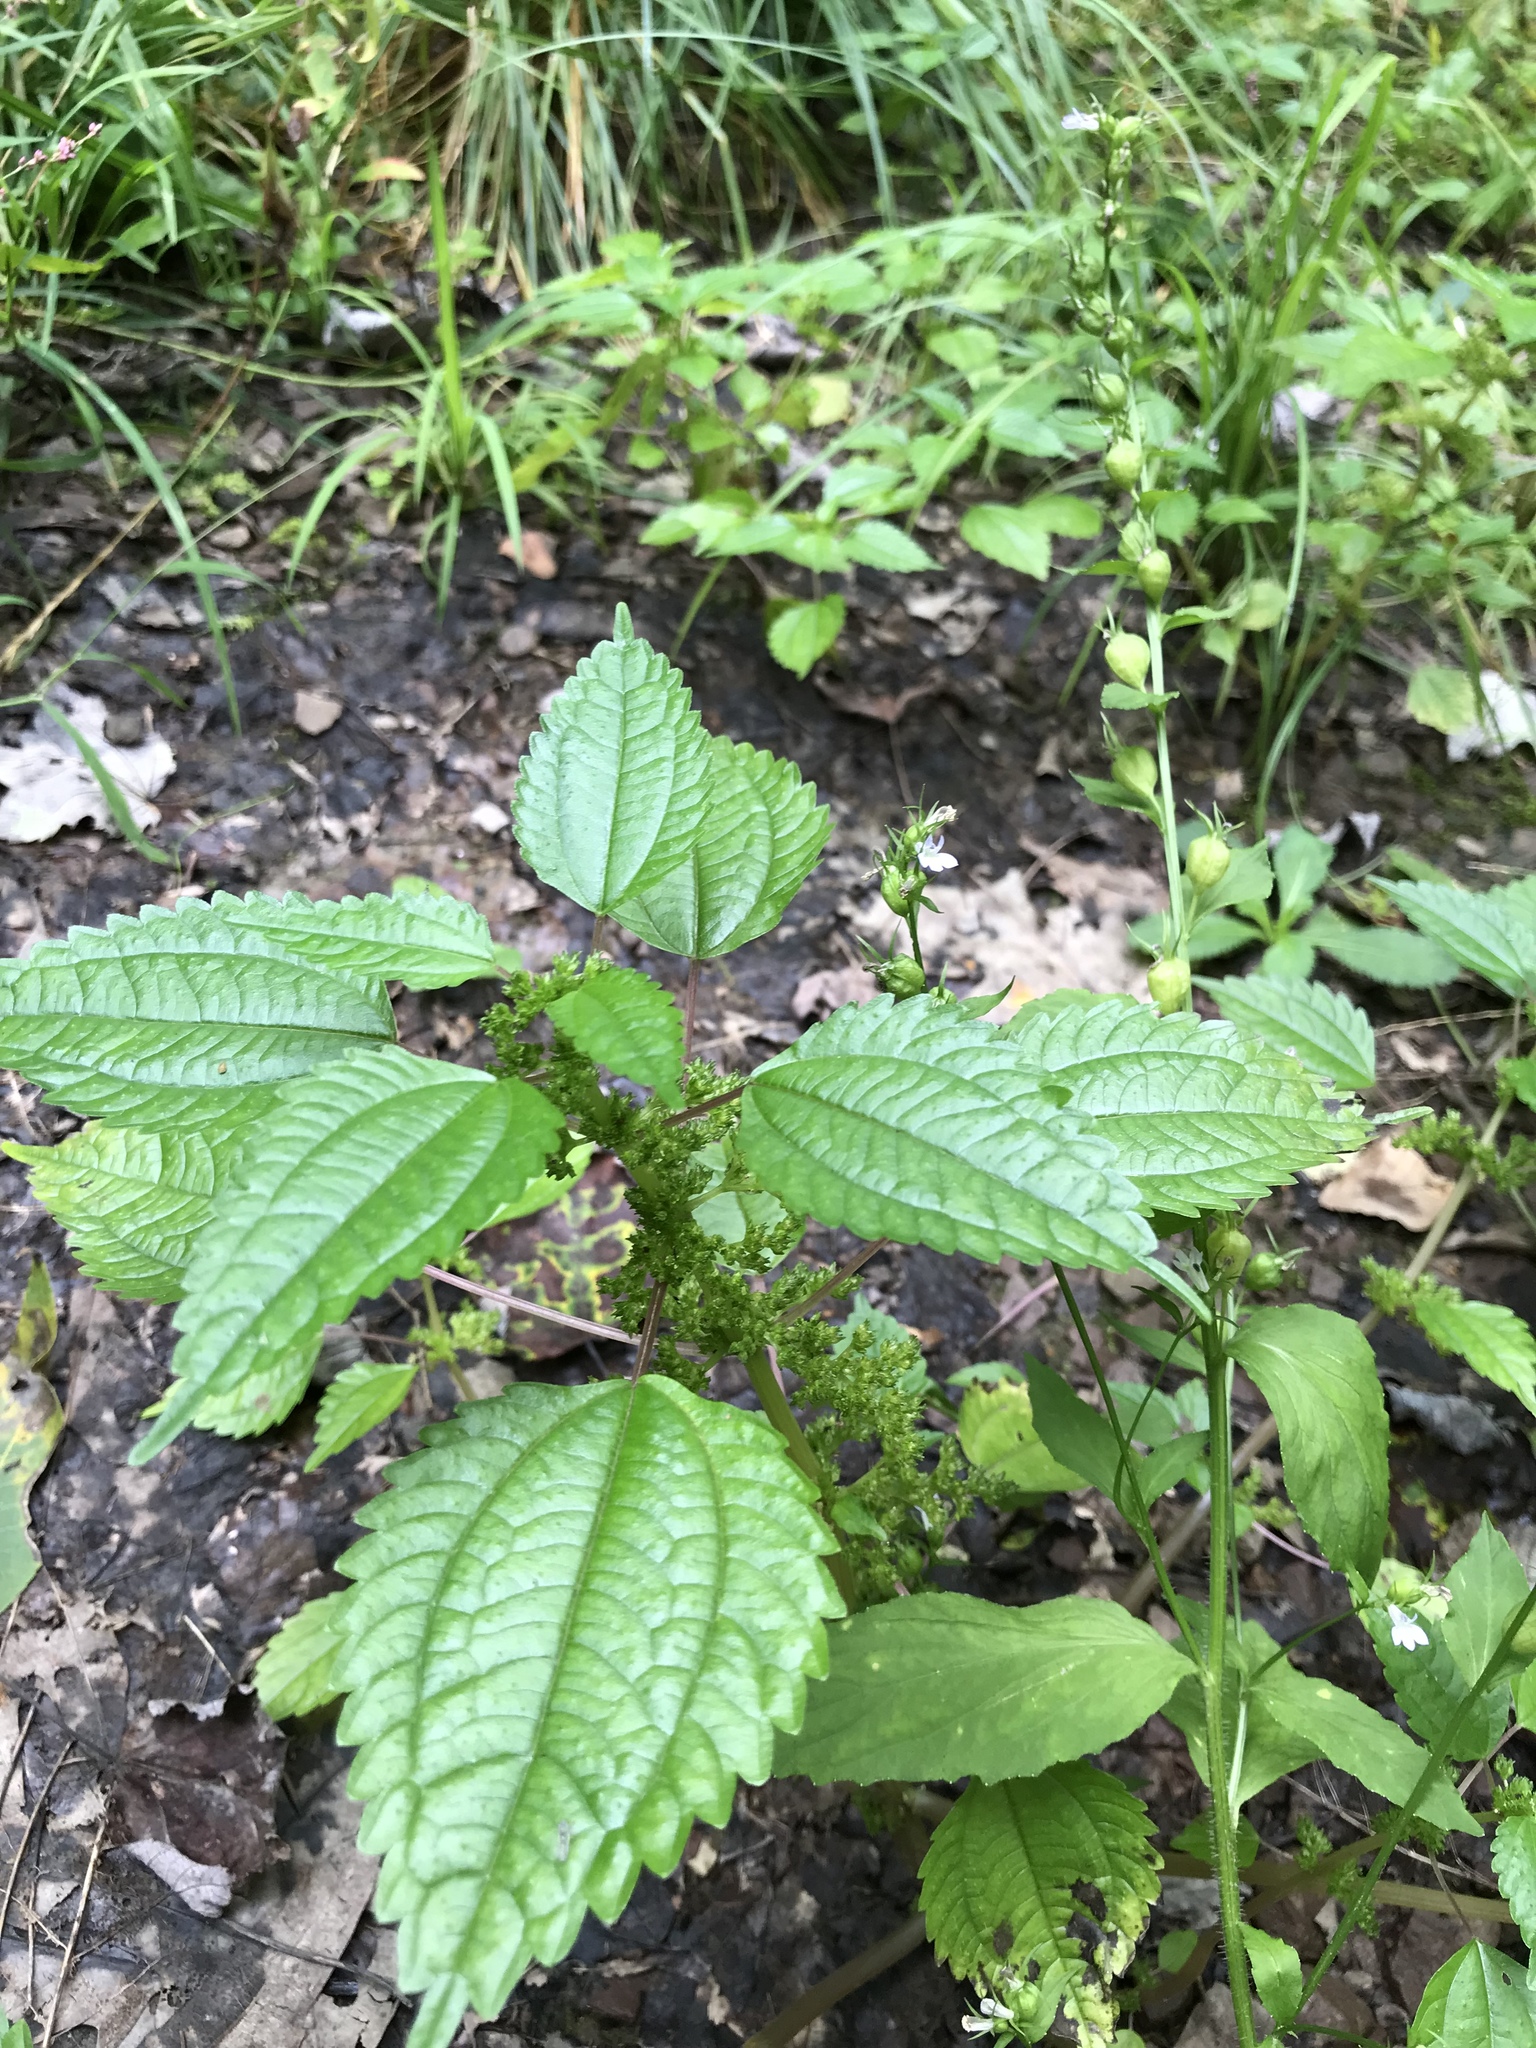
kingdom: Plantae
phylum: Tracheophyta
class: Magnoliopsida
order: Rosales
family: Urticaceae
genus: Pilea
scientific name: Pilea pumila
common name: Clearweed
